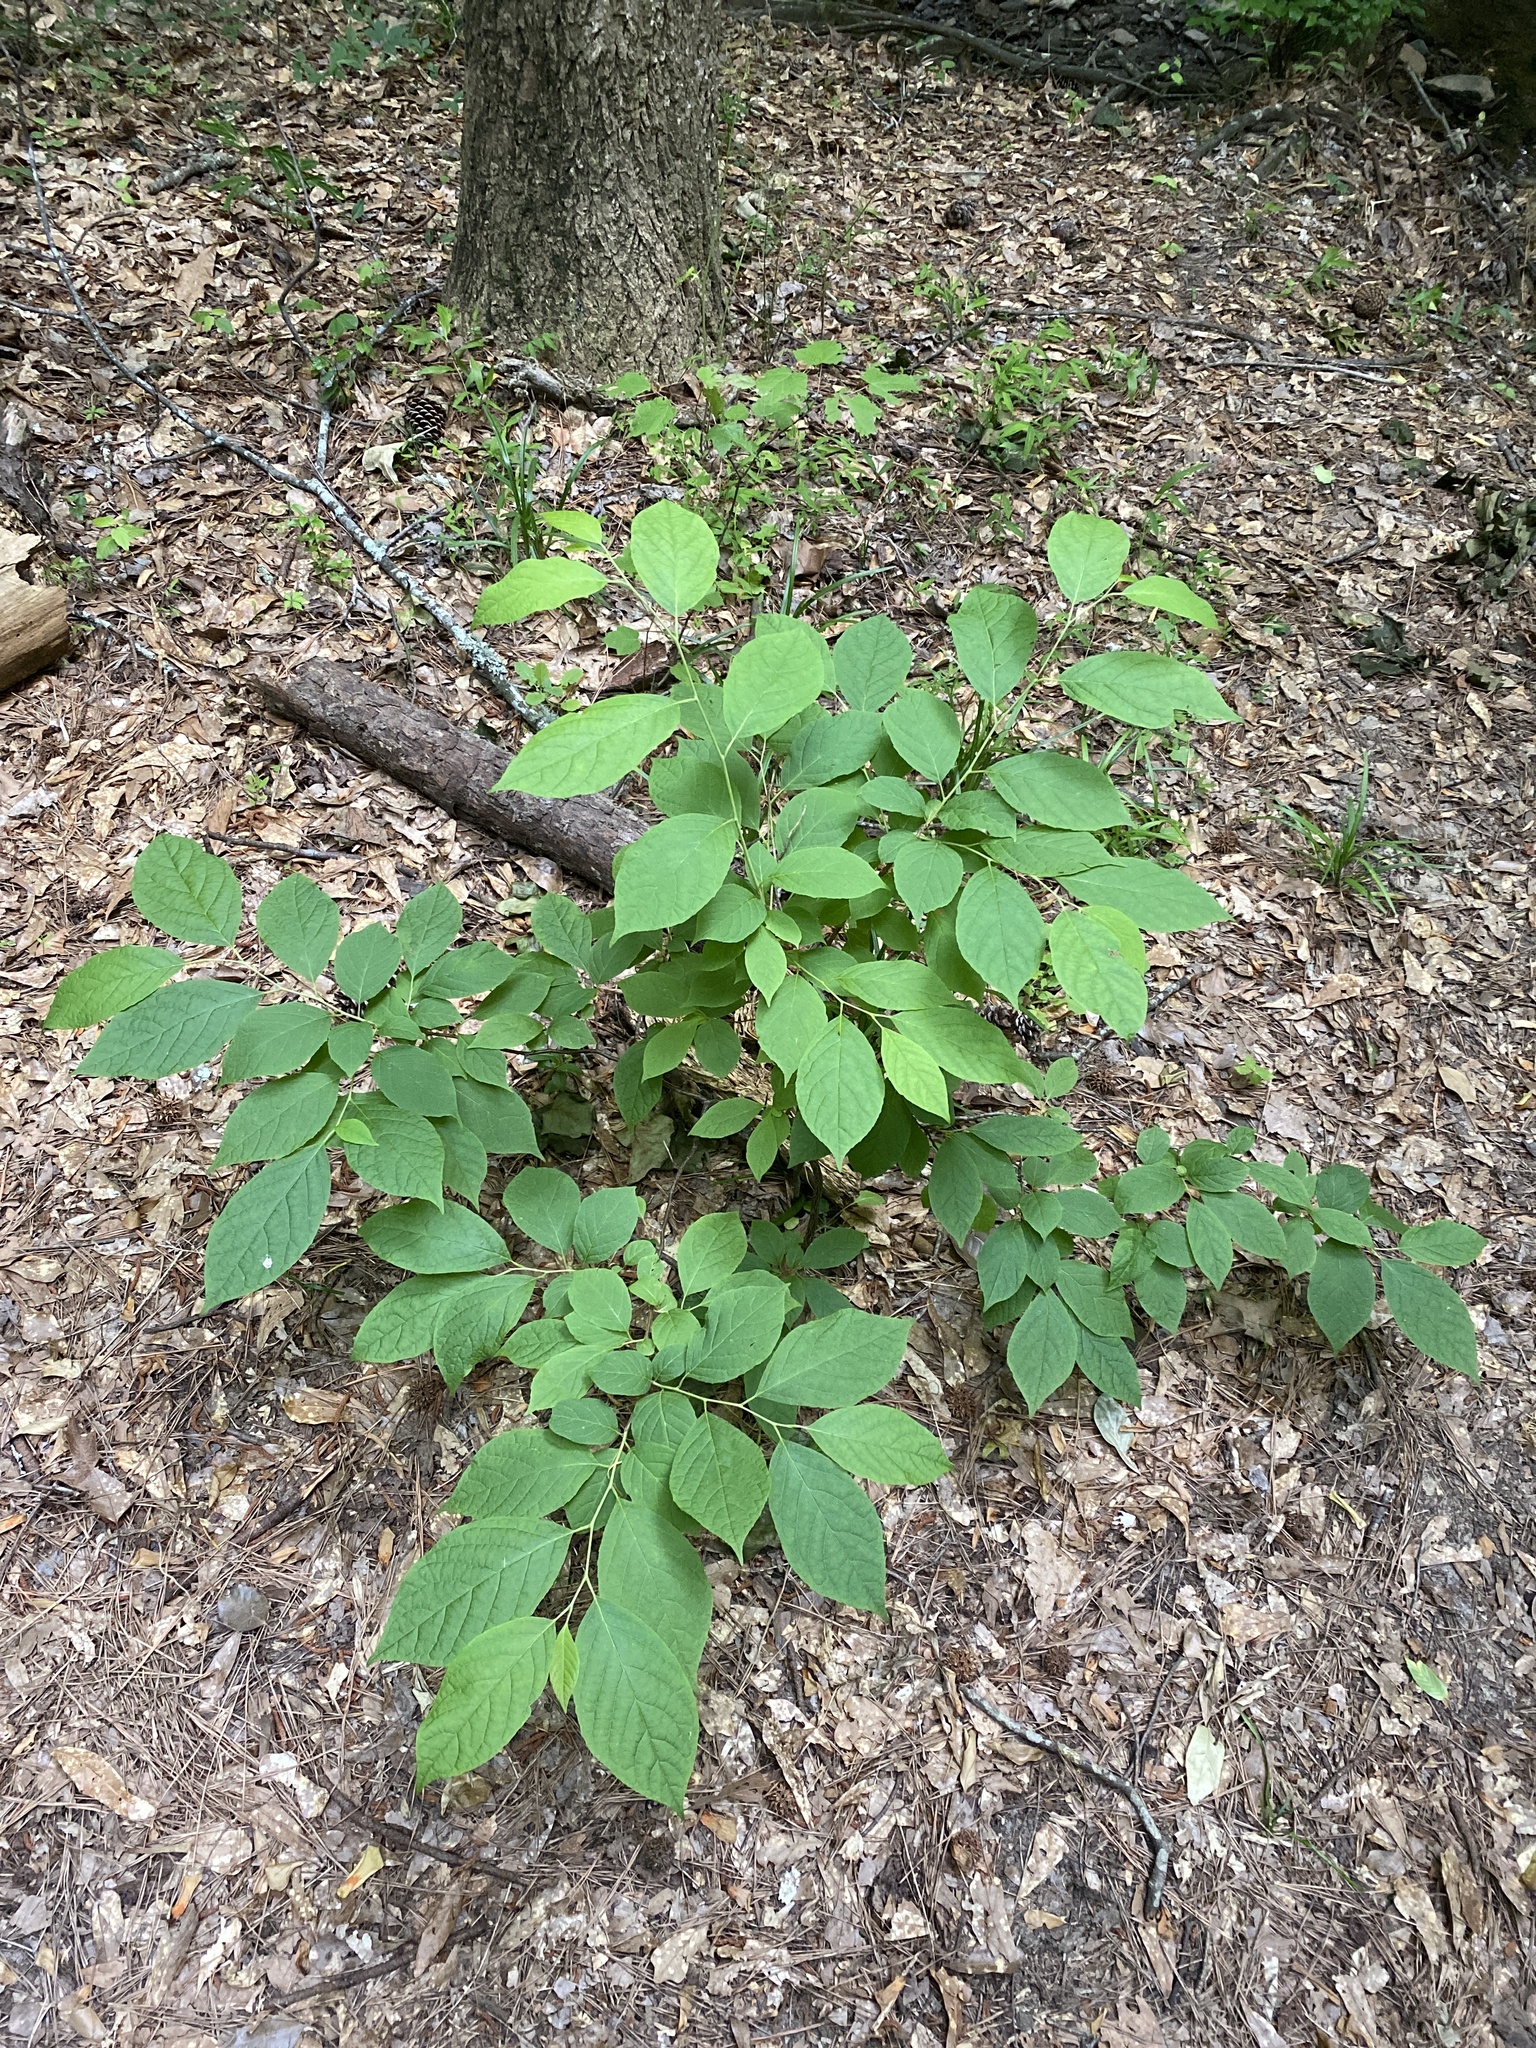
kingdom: Plantae
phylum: Tracheophyta
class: Magnoliopsida
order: Laurales
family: Lauraceae
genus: Lindera
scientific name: Lindera benzoin
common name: Spicebush
